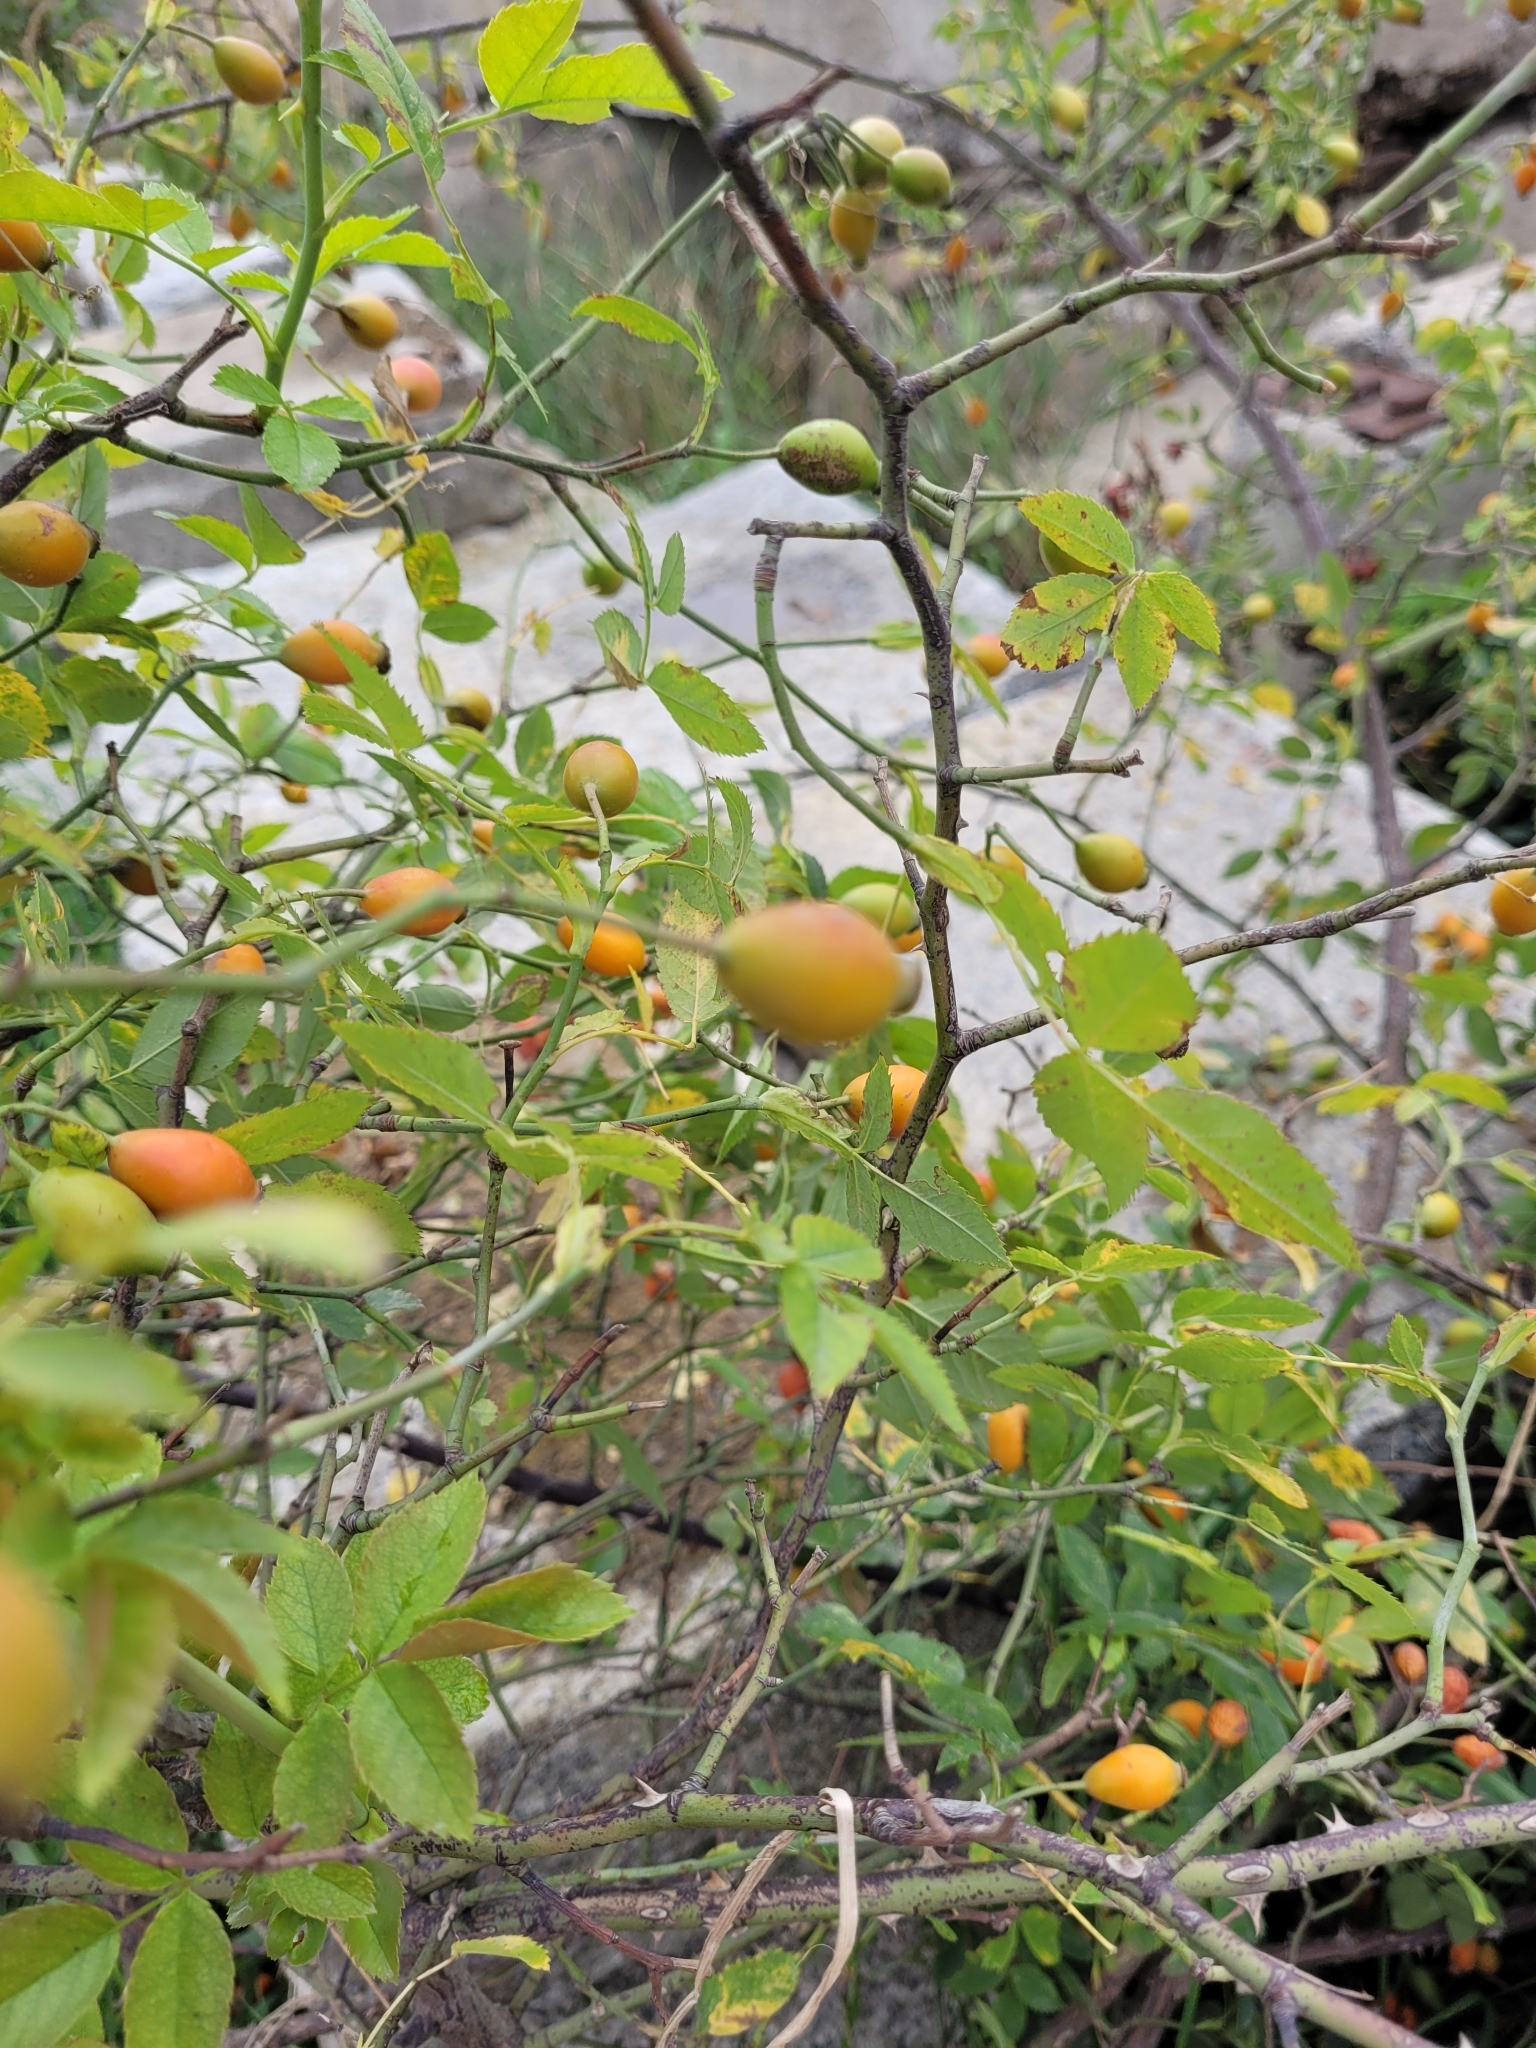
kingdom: Plantae
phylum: Tracheophyta
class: Magnoliopsida
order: Rosales
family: Rosaceae
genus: Rosa
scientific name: Rosa canina
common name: Dog rose
